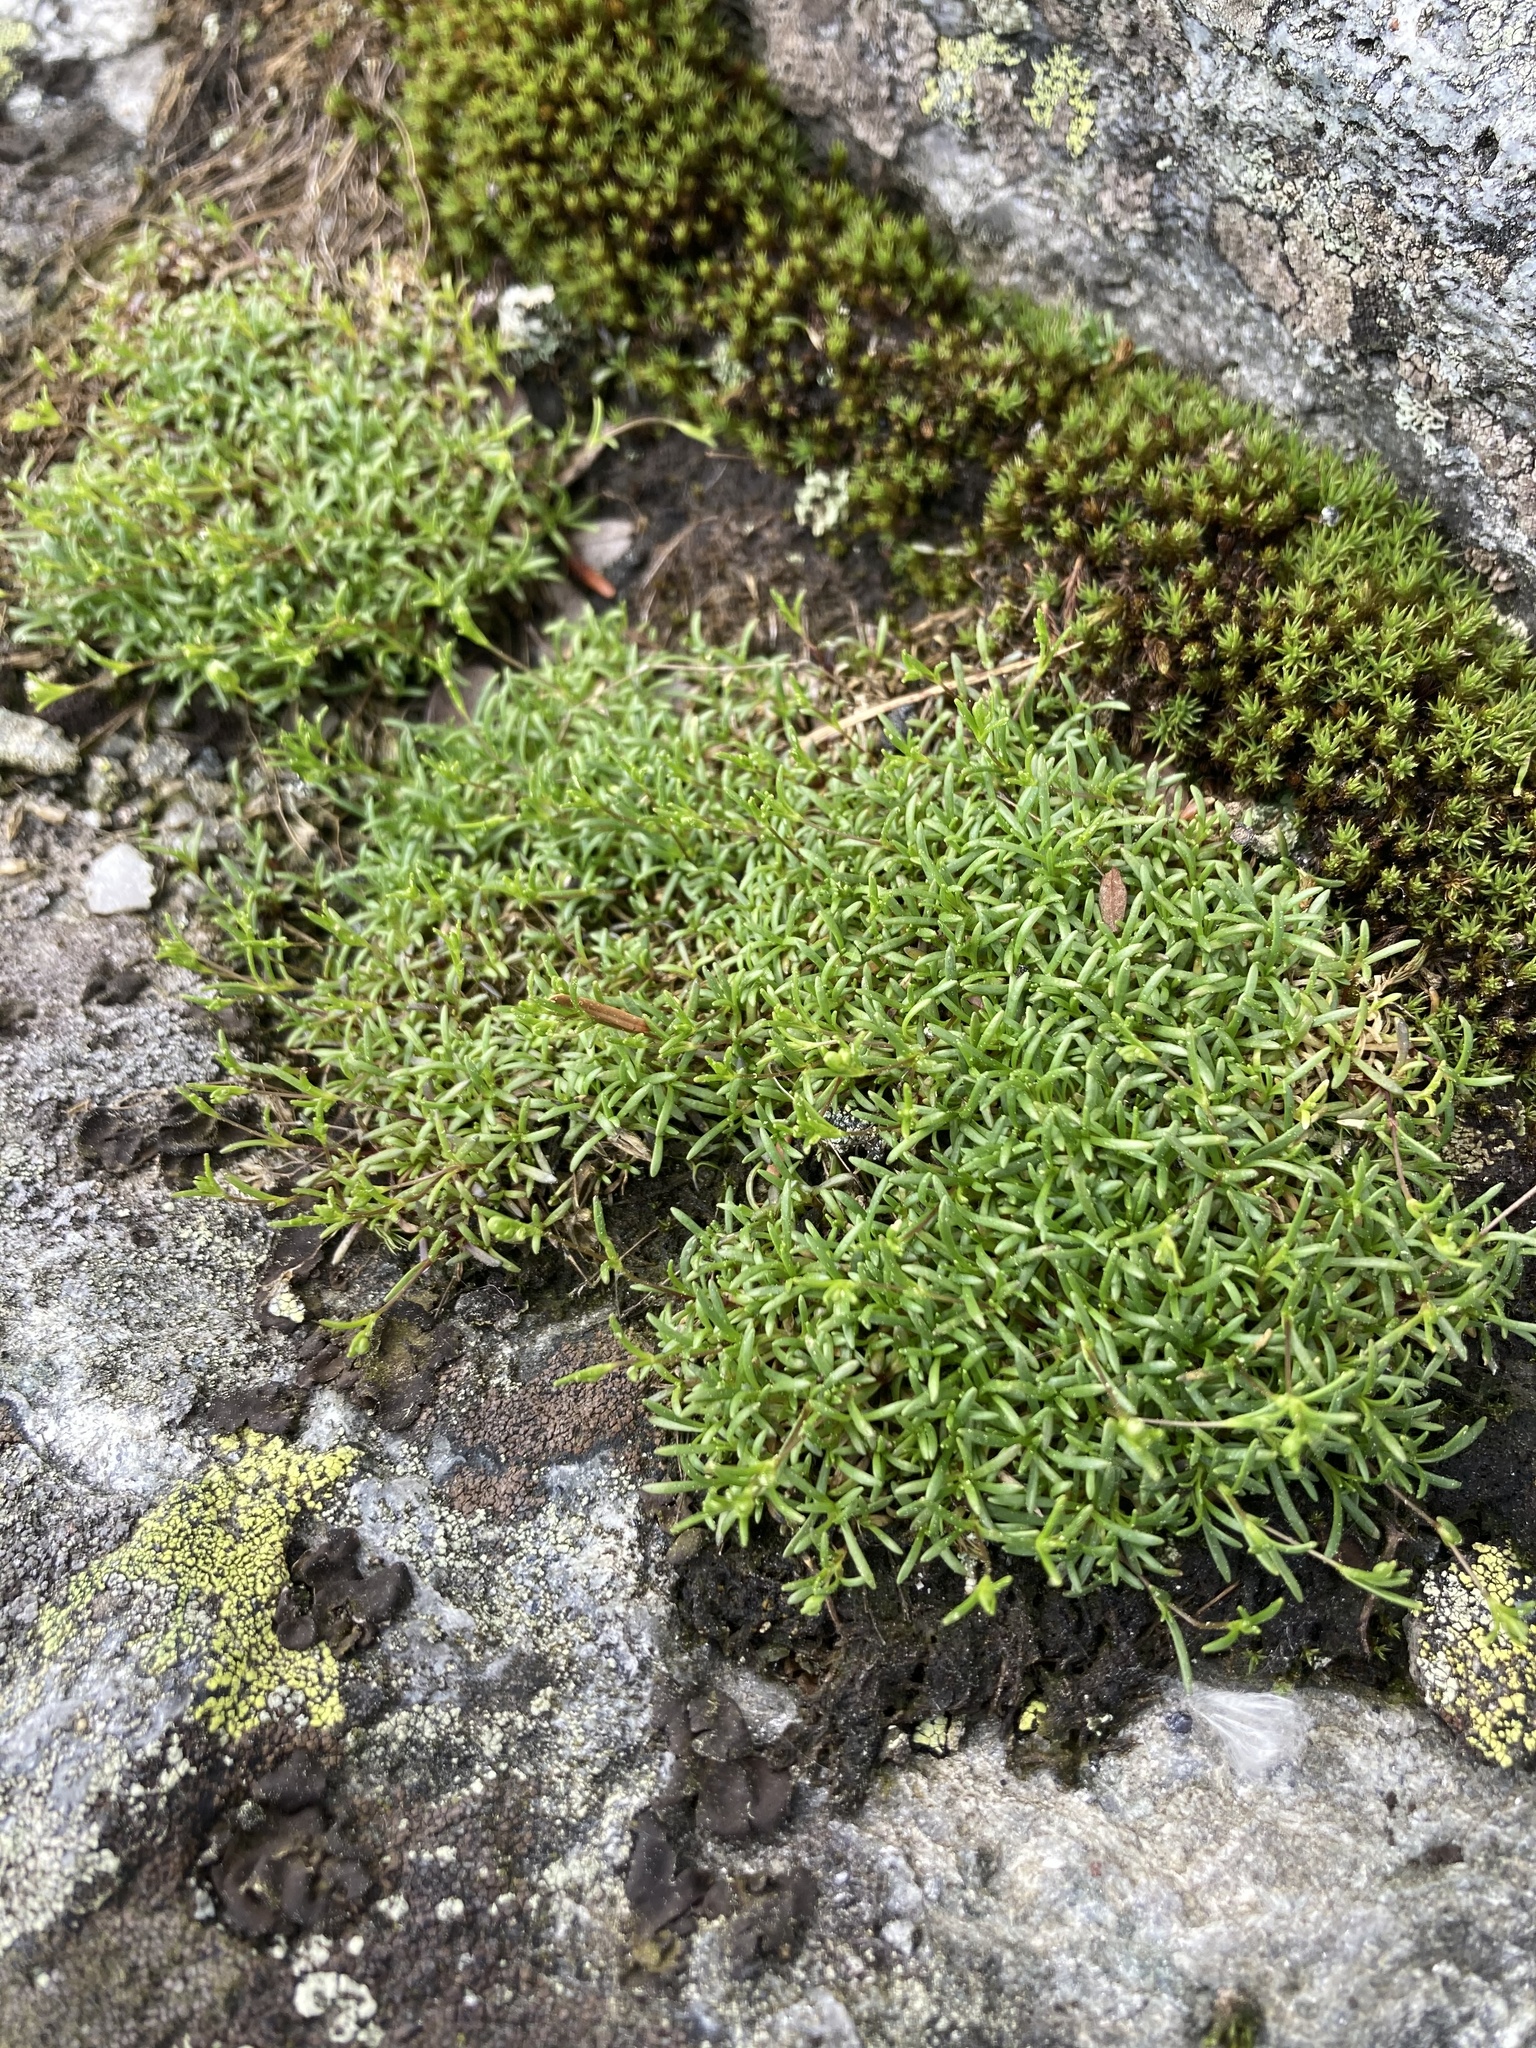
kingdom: Plantae
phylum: Tracheophyta
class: Magnoliopsida
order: Caryophyllales
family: Caryophyllaceae
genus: Geocarpon
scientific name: Geocarpon groenlandicum
